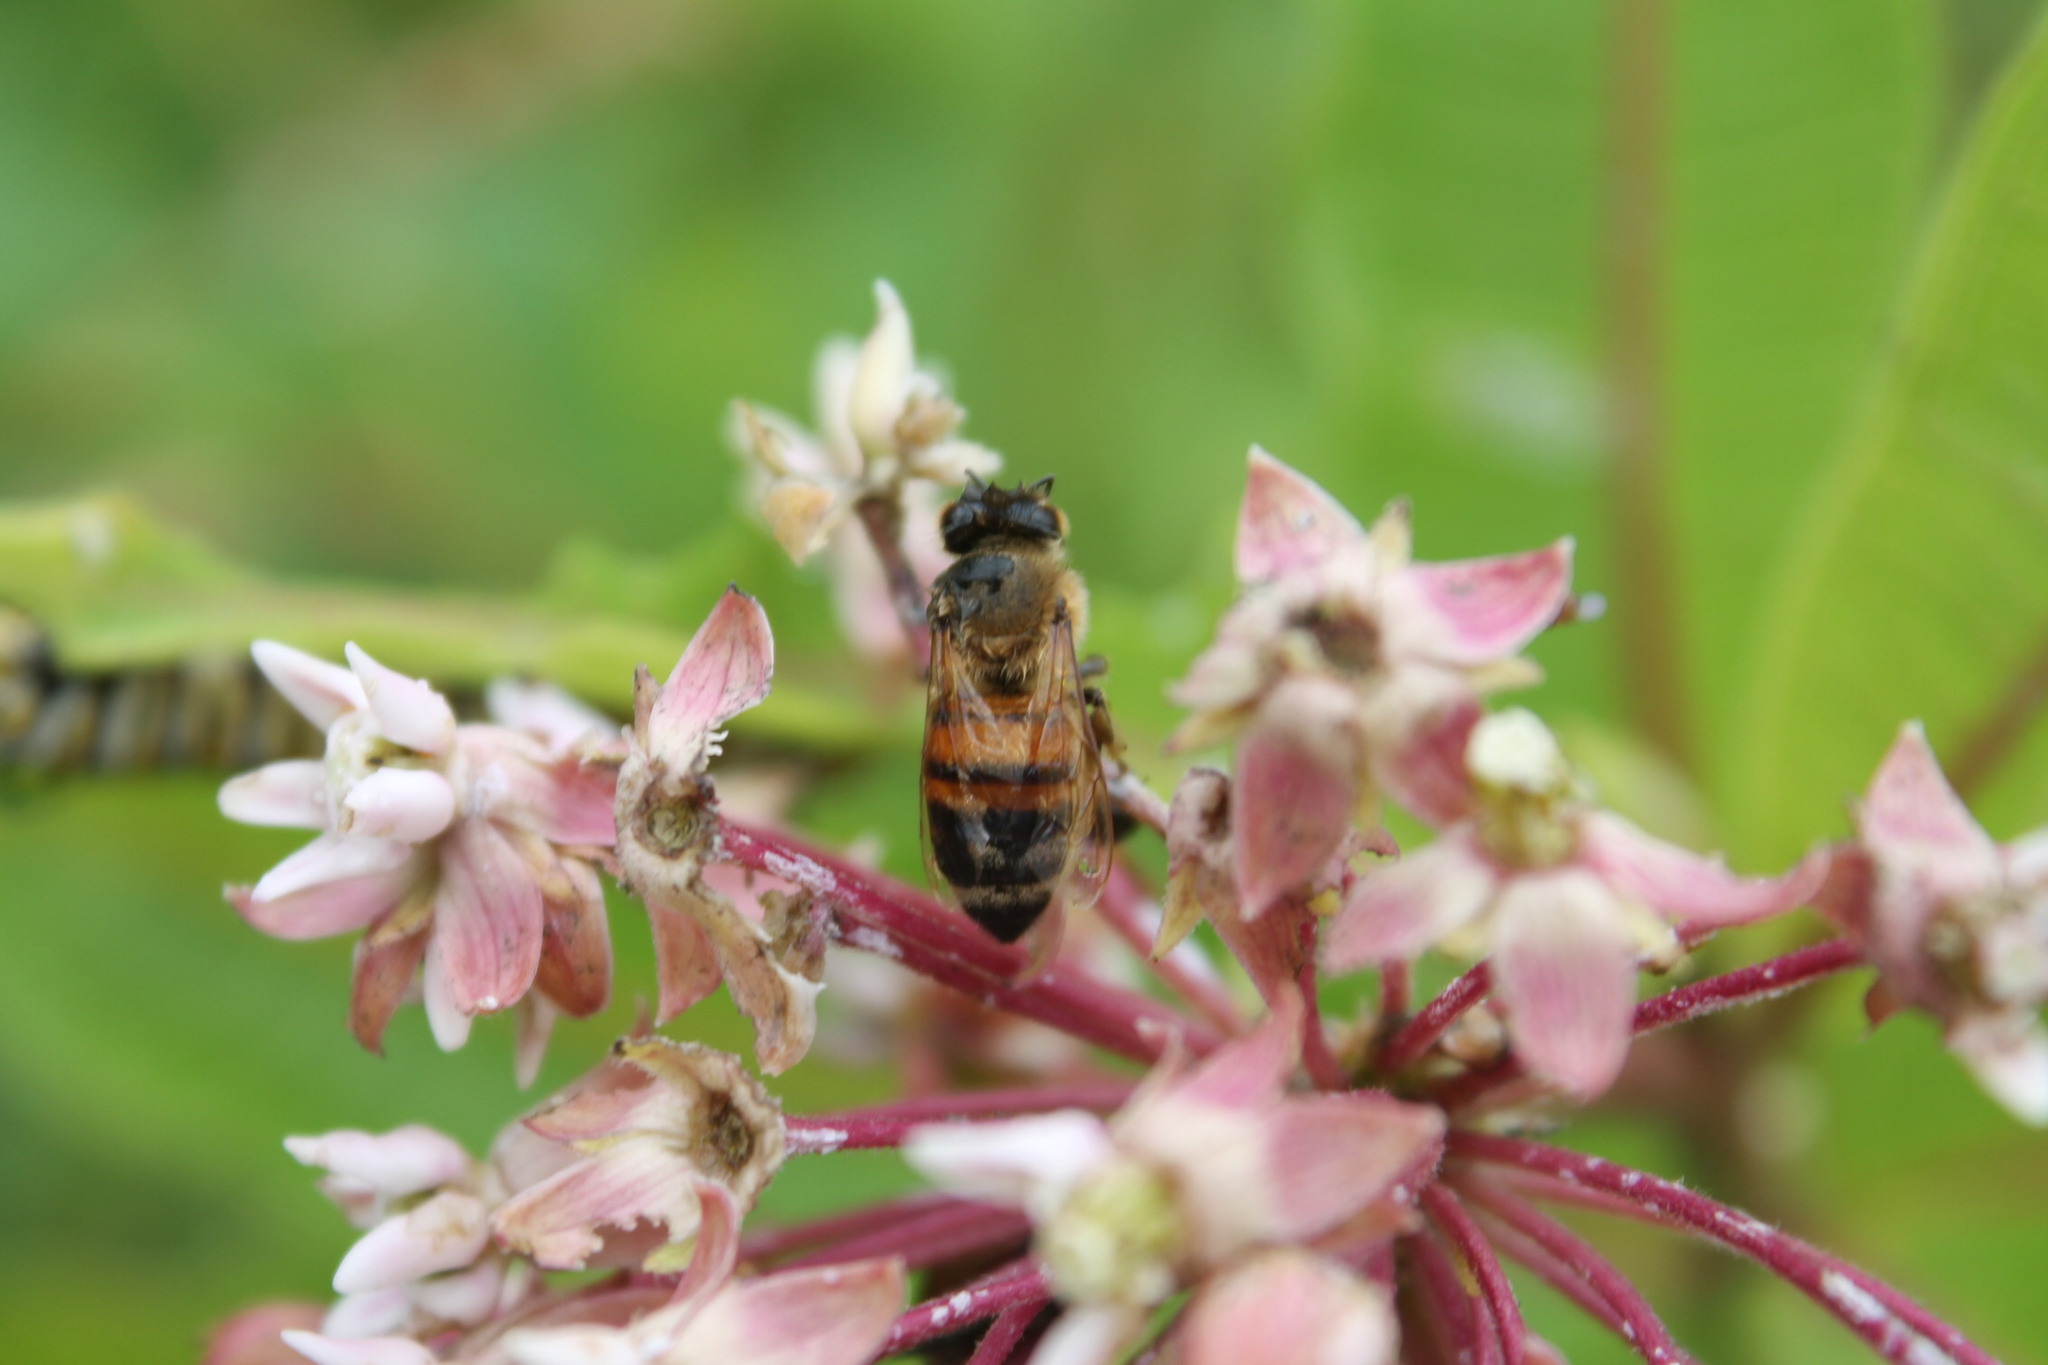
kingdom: Animalia
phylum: Arthropoda
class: Insecta
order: Hymenoptera
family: Apidae
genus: Apis
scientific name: Apis mellifera
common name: Honey bee
